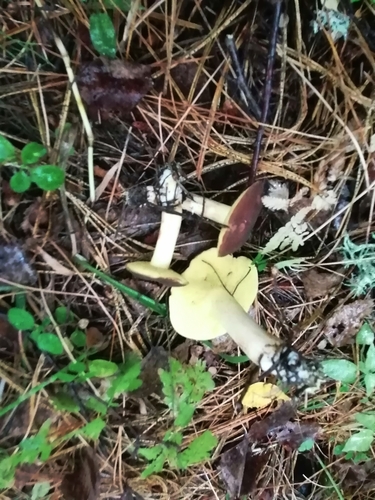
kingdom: Fungi
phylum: Basidiomycota
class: Agaricomycetes
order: Boletales
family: Suillaceae
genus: Suillus
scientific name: Suillus granulatus
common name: Weeping bolete
